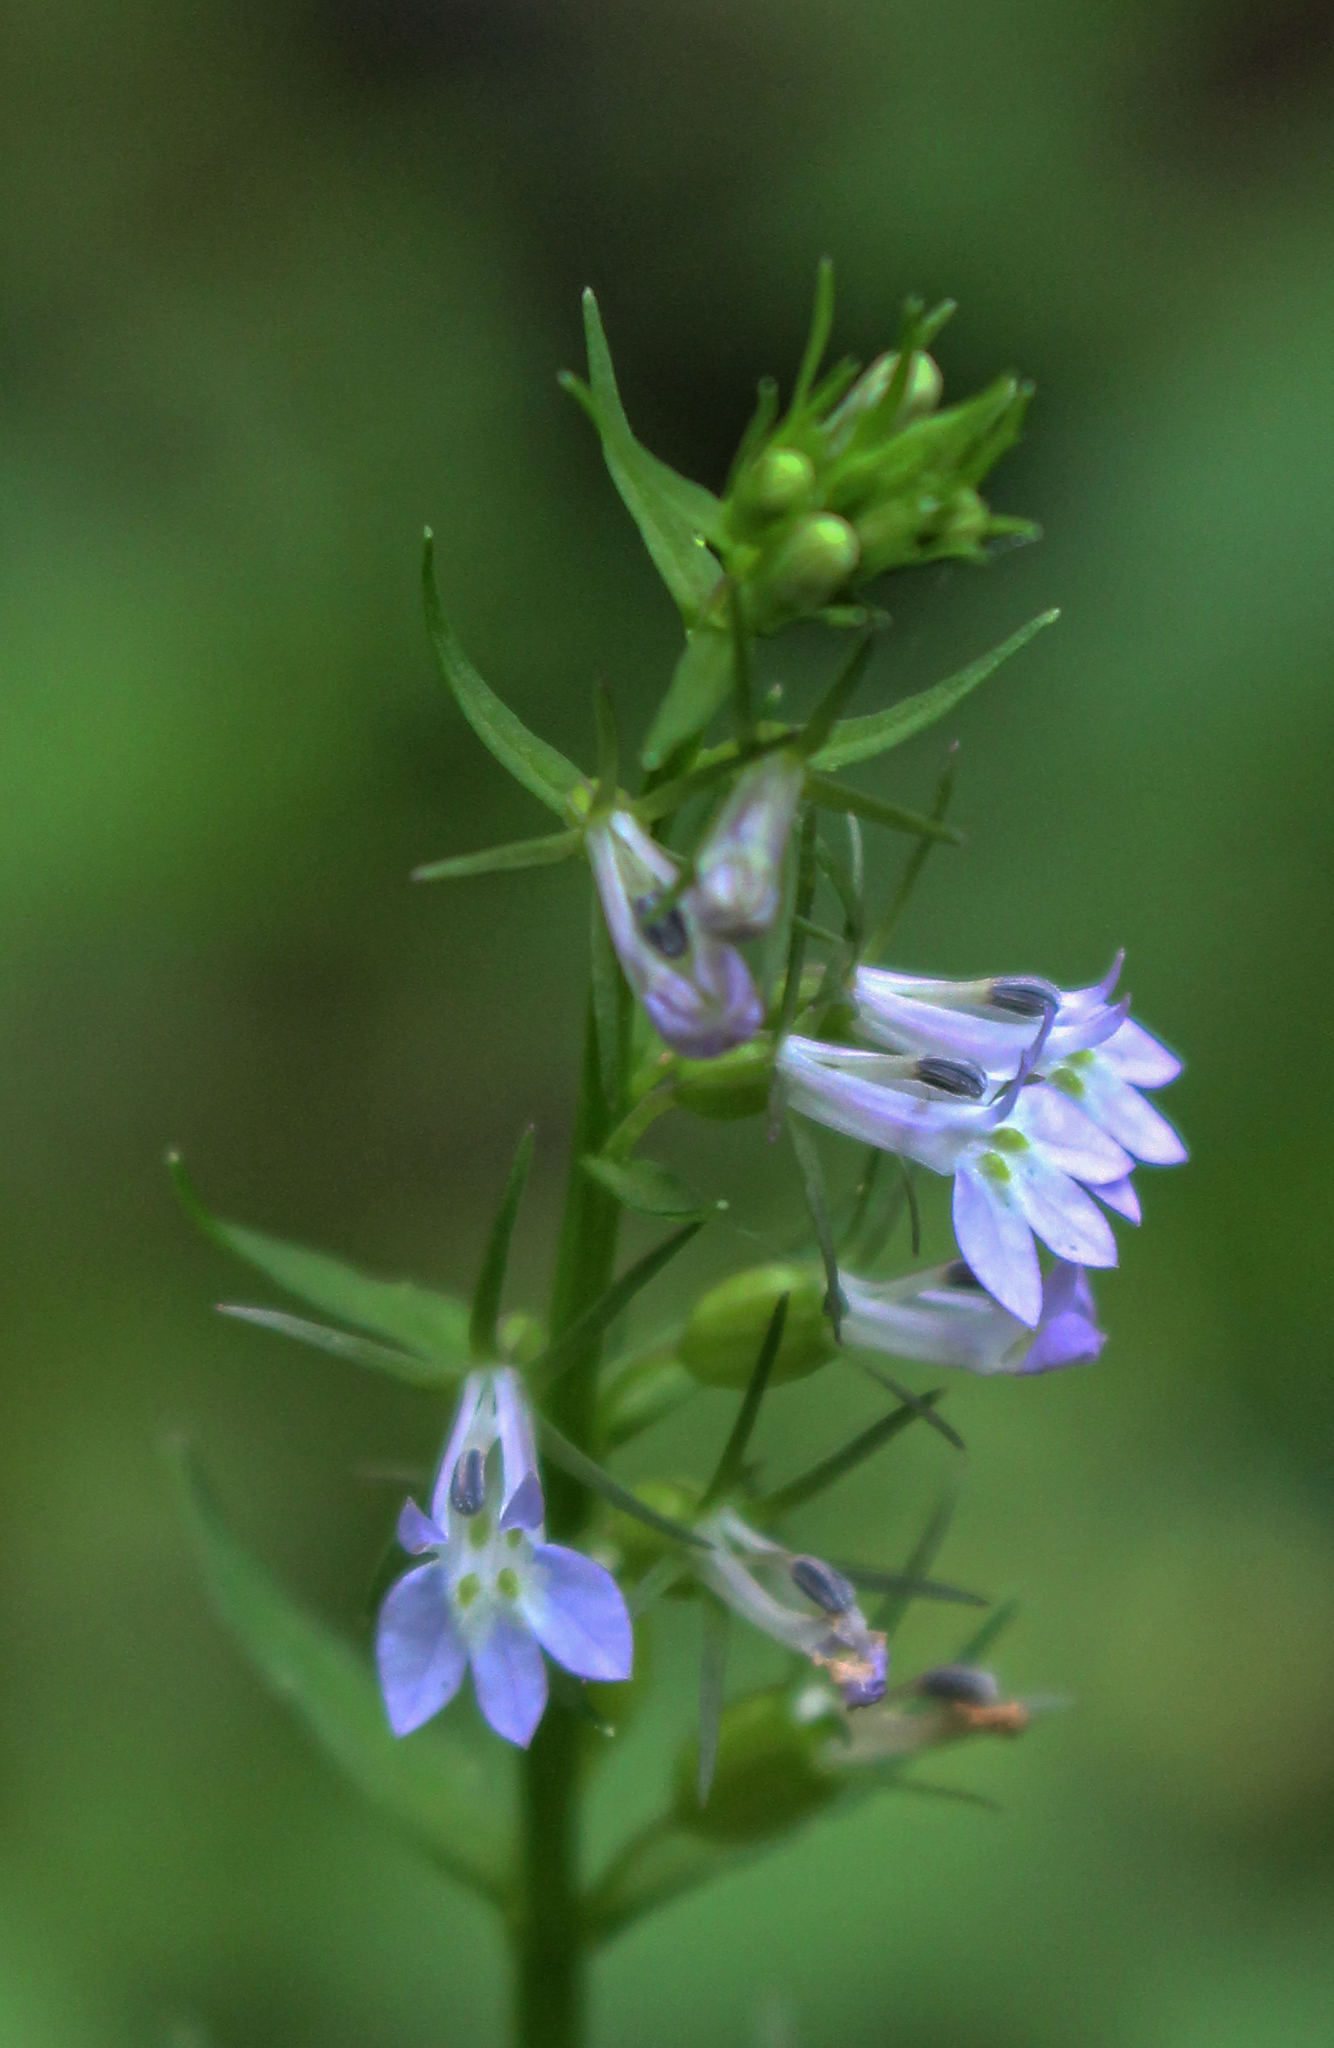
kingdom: Plantae
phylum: Tracheophyta
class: Magnoliopsida
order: Asterales
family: Campanulaceae
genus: Lobelia
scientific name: Lobelia inflata
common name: Indian tobacco
